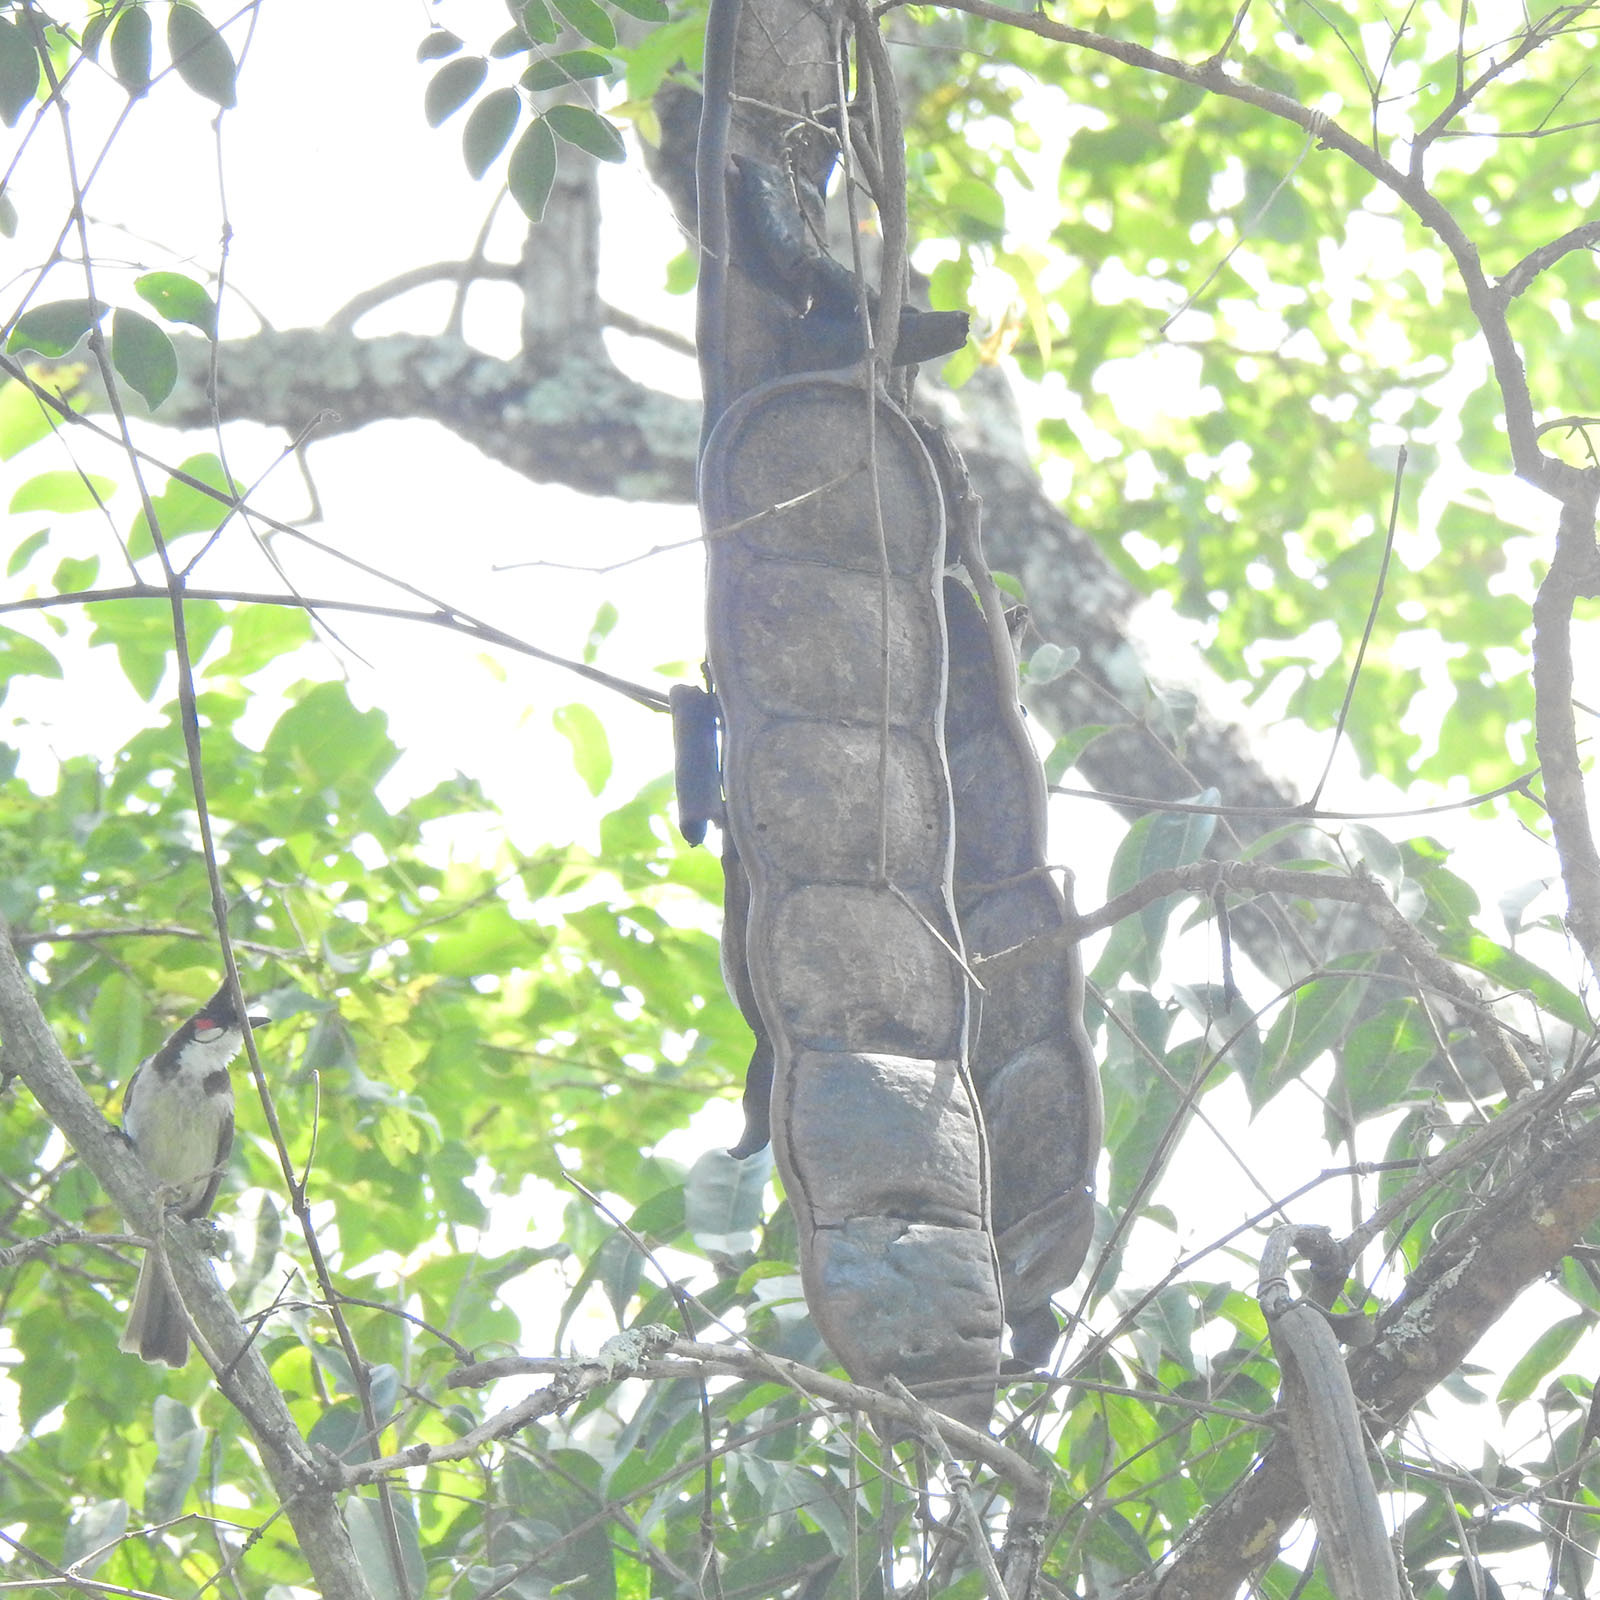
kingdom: Plantae
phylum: Tracheophyta
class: Magnoliopsida
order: Fabales
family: Fabaceae
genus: Entada
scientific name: Entada rheedei
